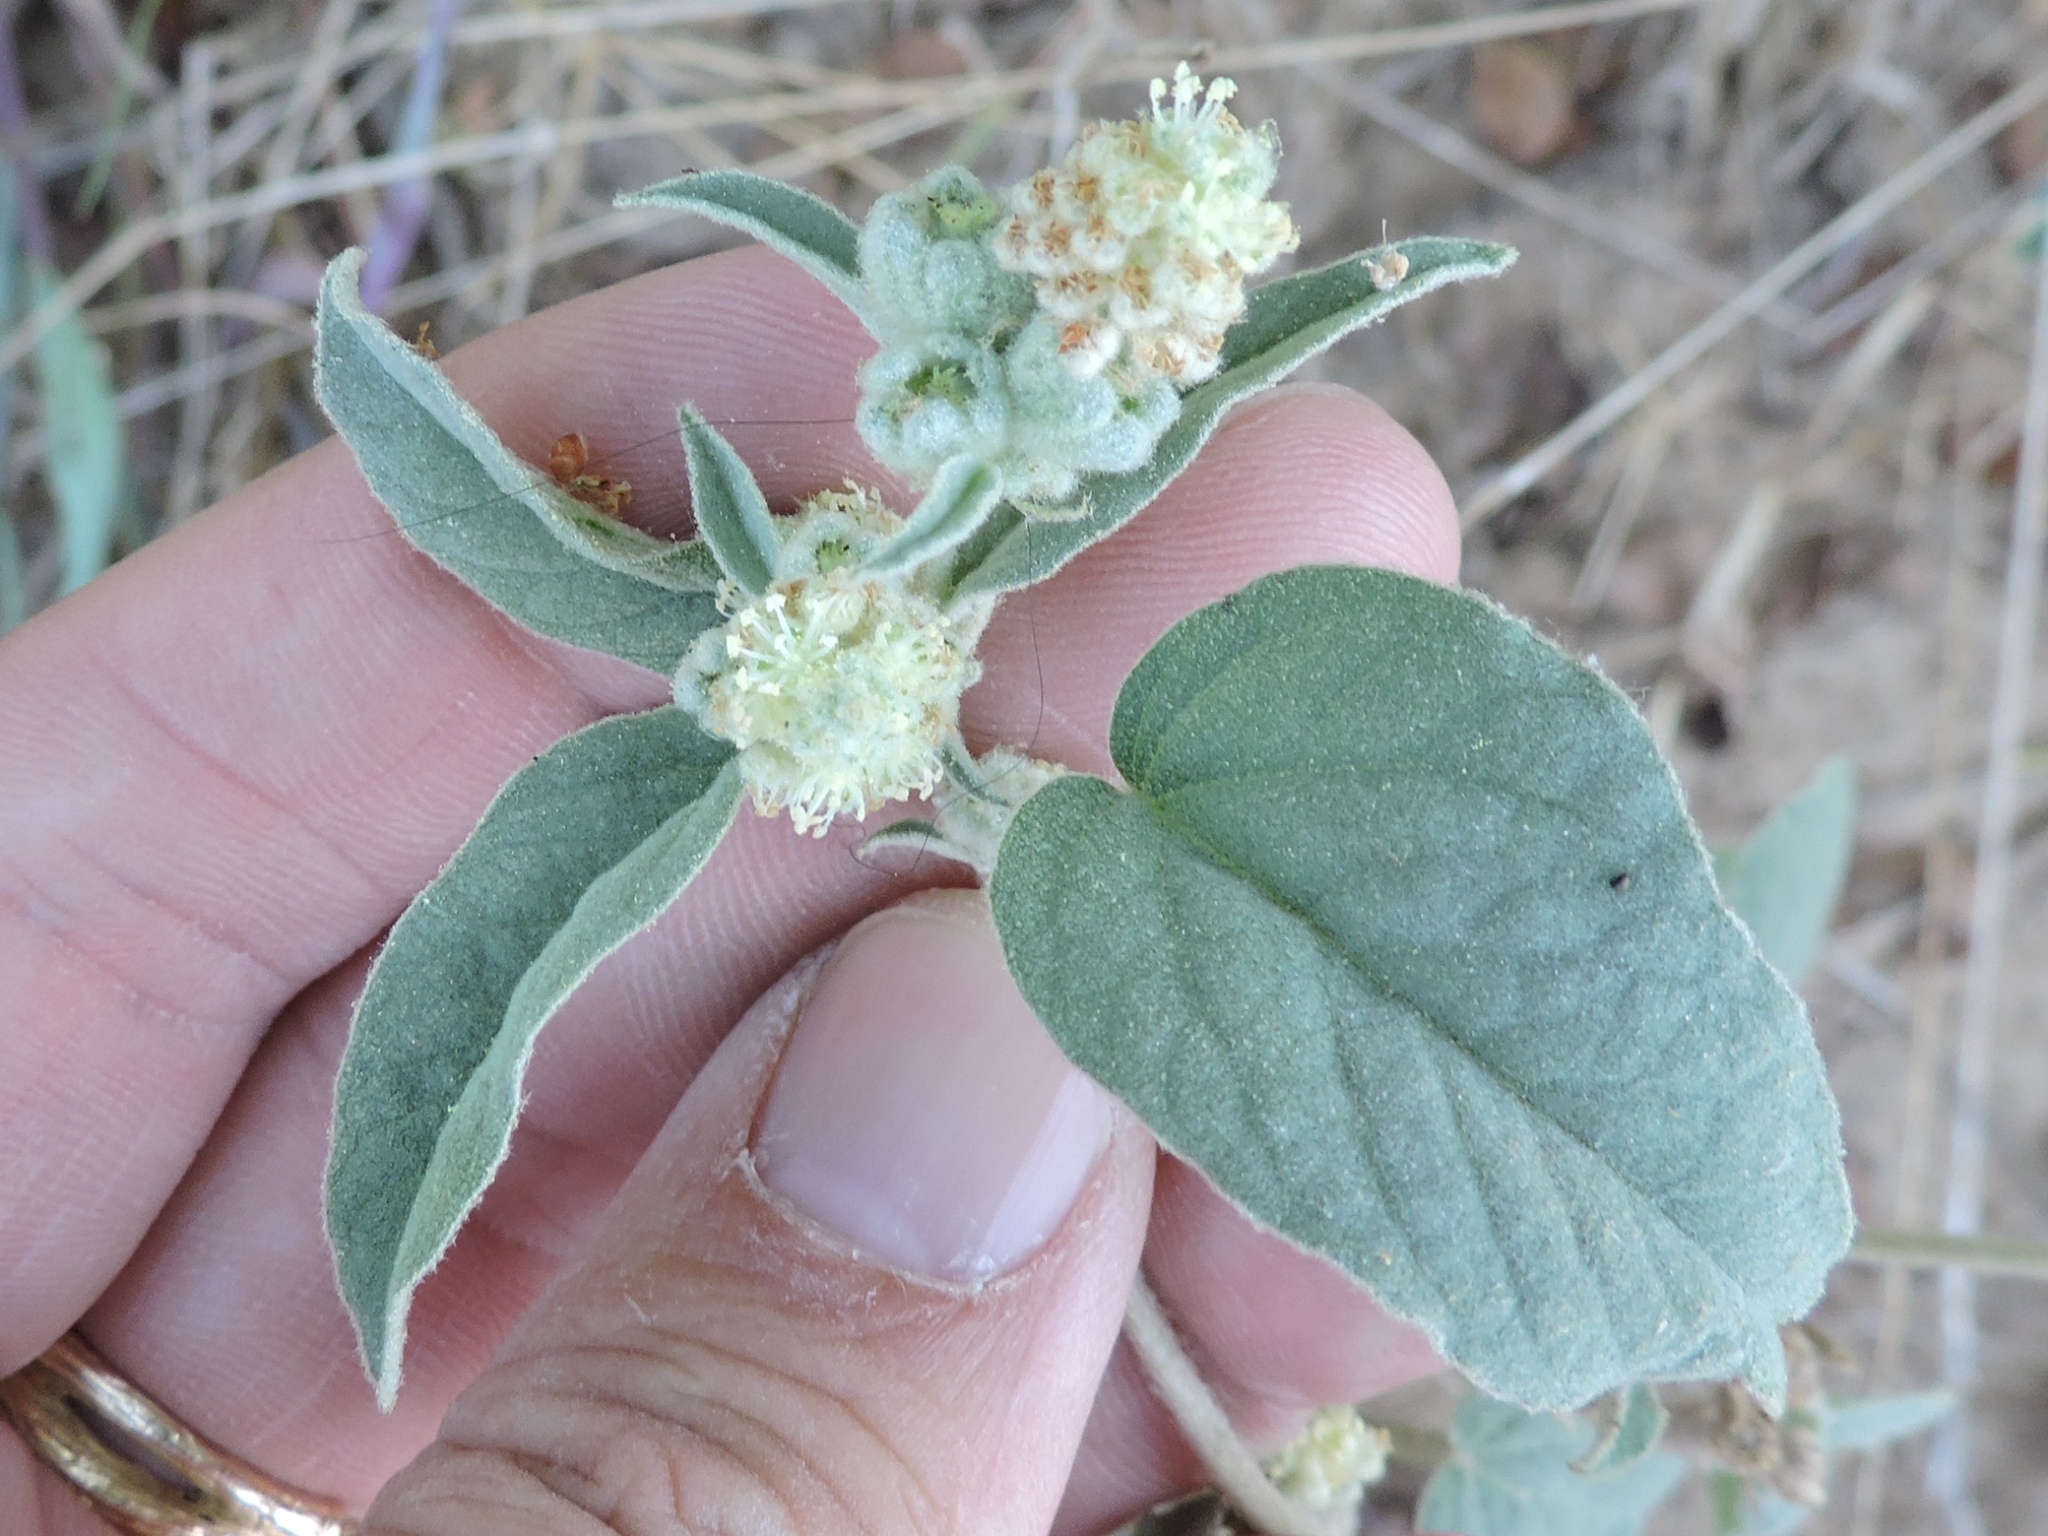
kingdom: Plantae
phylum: Tracheophyta
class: Magnoliopsida
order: Malpighiales
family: Euphorbiaceae
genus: Croton
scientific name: Croton lindheimeri
